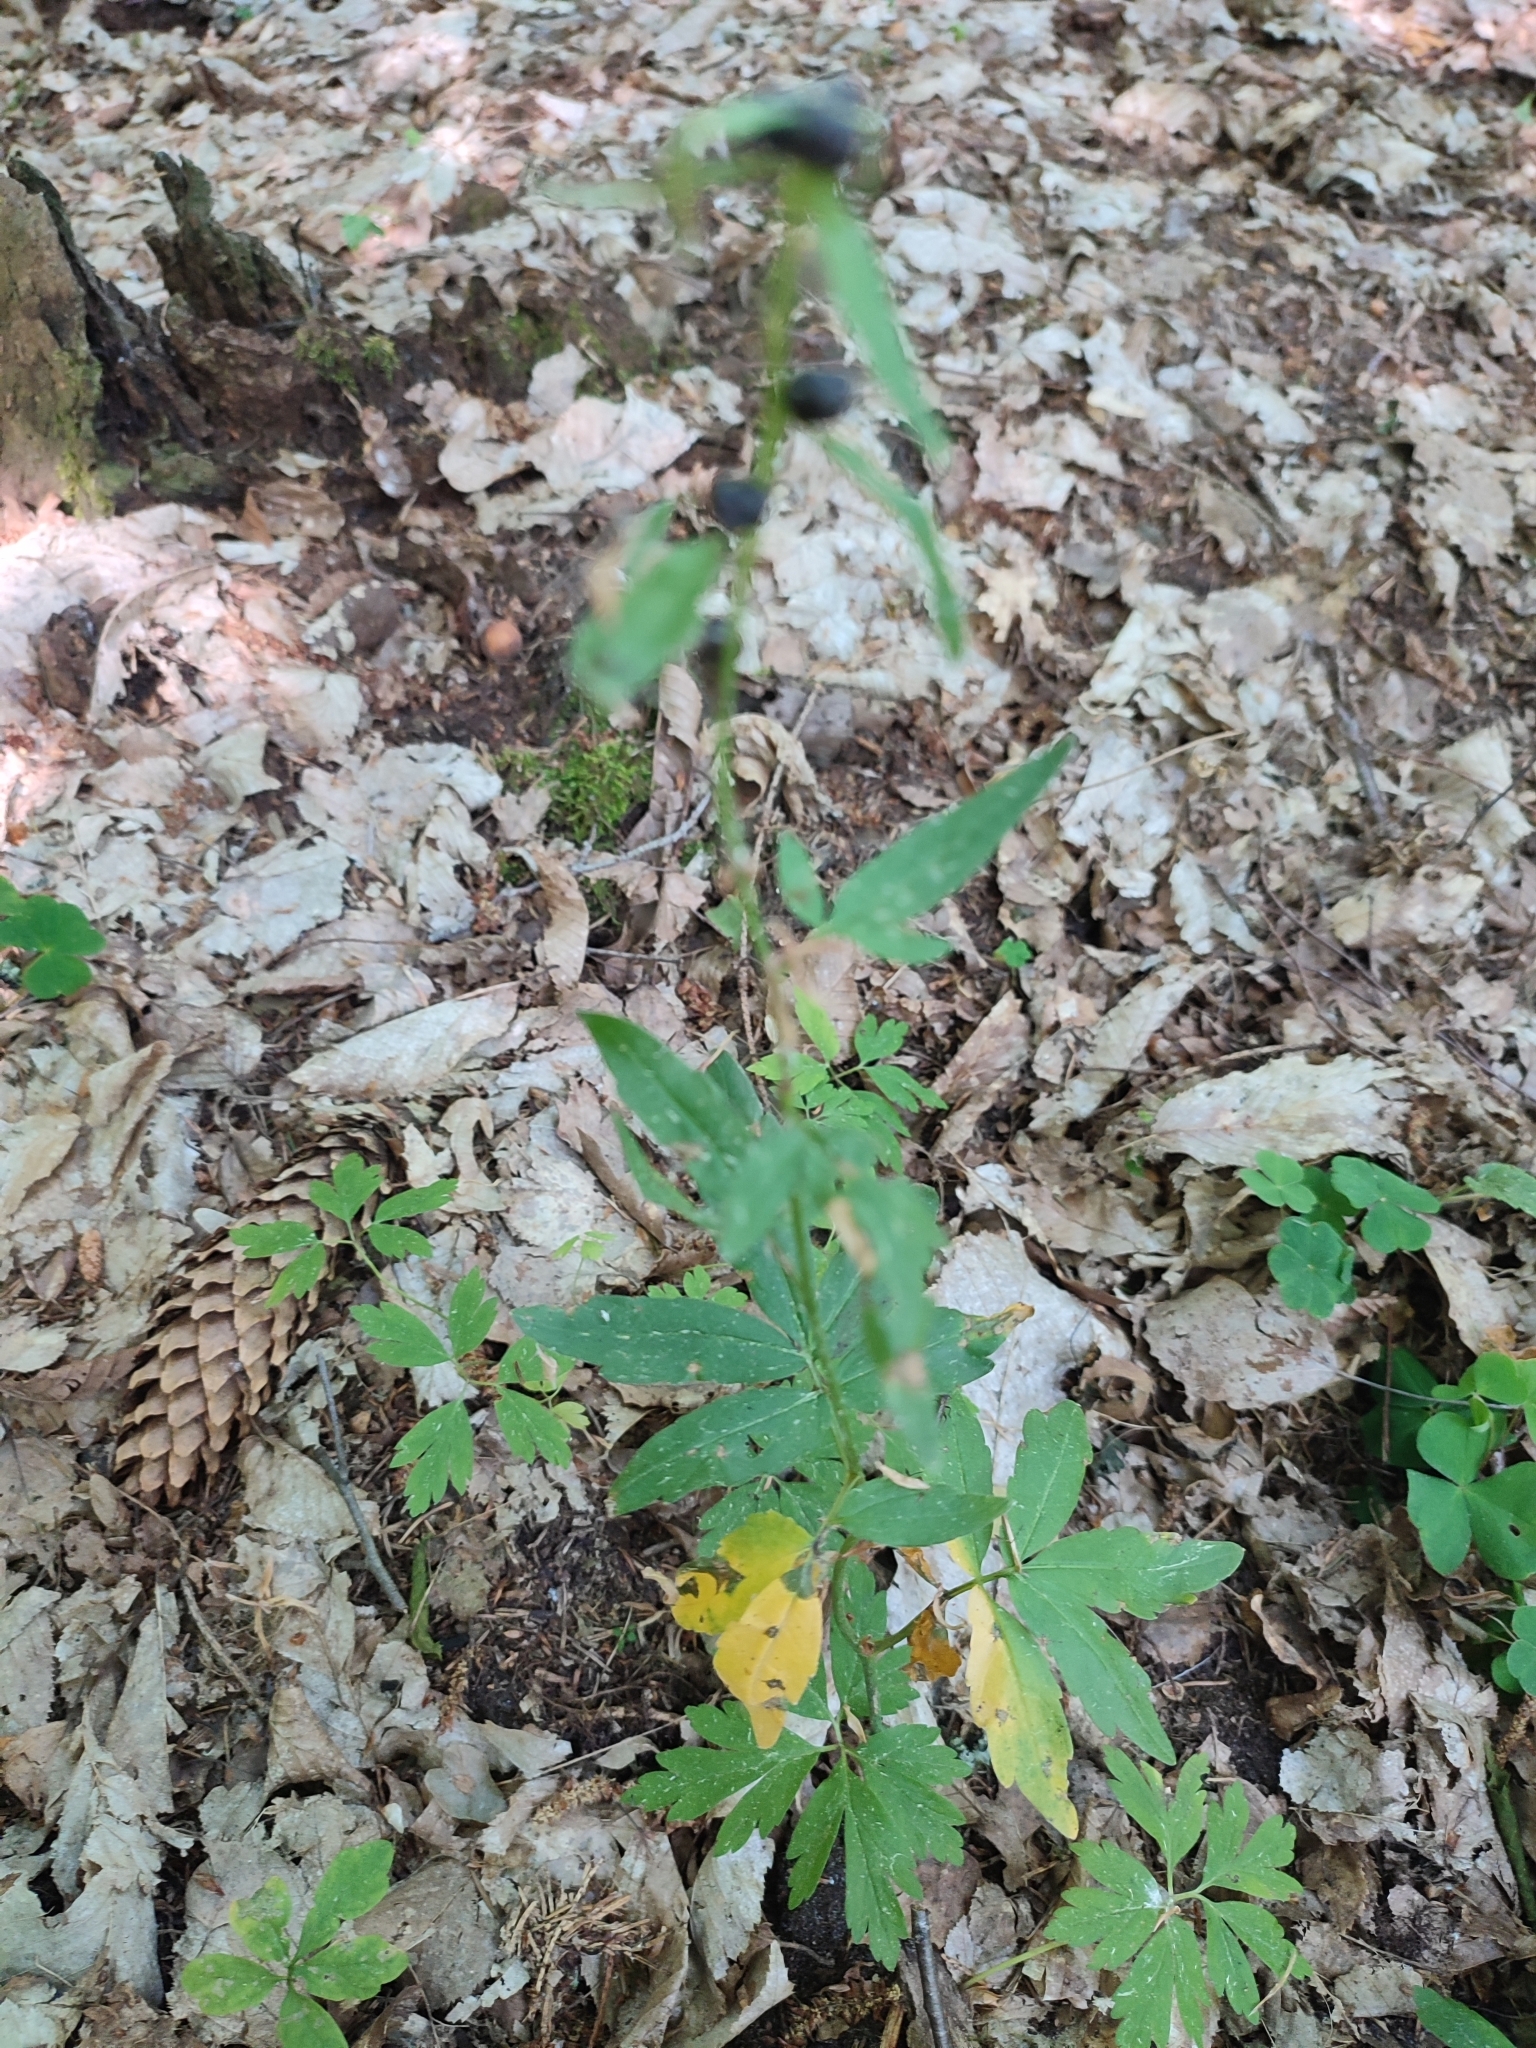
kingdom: Plantae
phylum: Tracheophyta
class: Magnoliopsida
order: Brassicales
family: Brassicaceae
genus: Cardamine
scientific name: Cardamine bulbifera
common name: Coralroot bittercress
